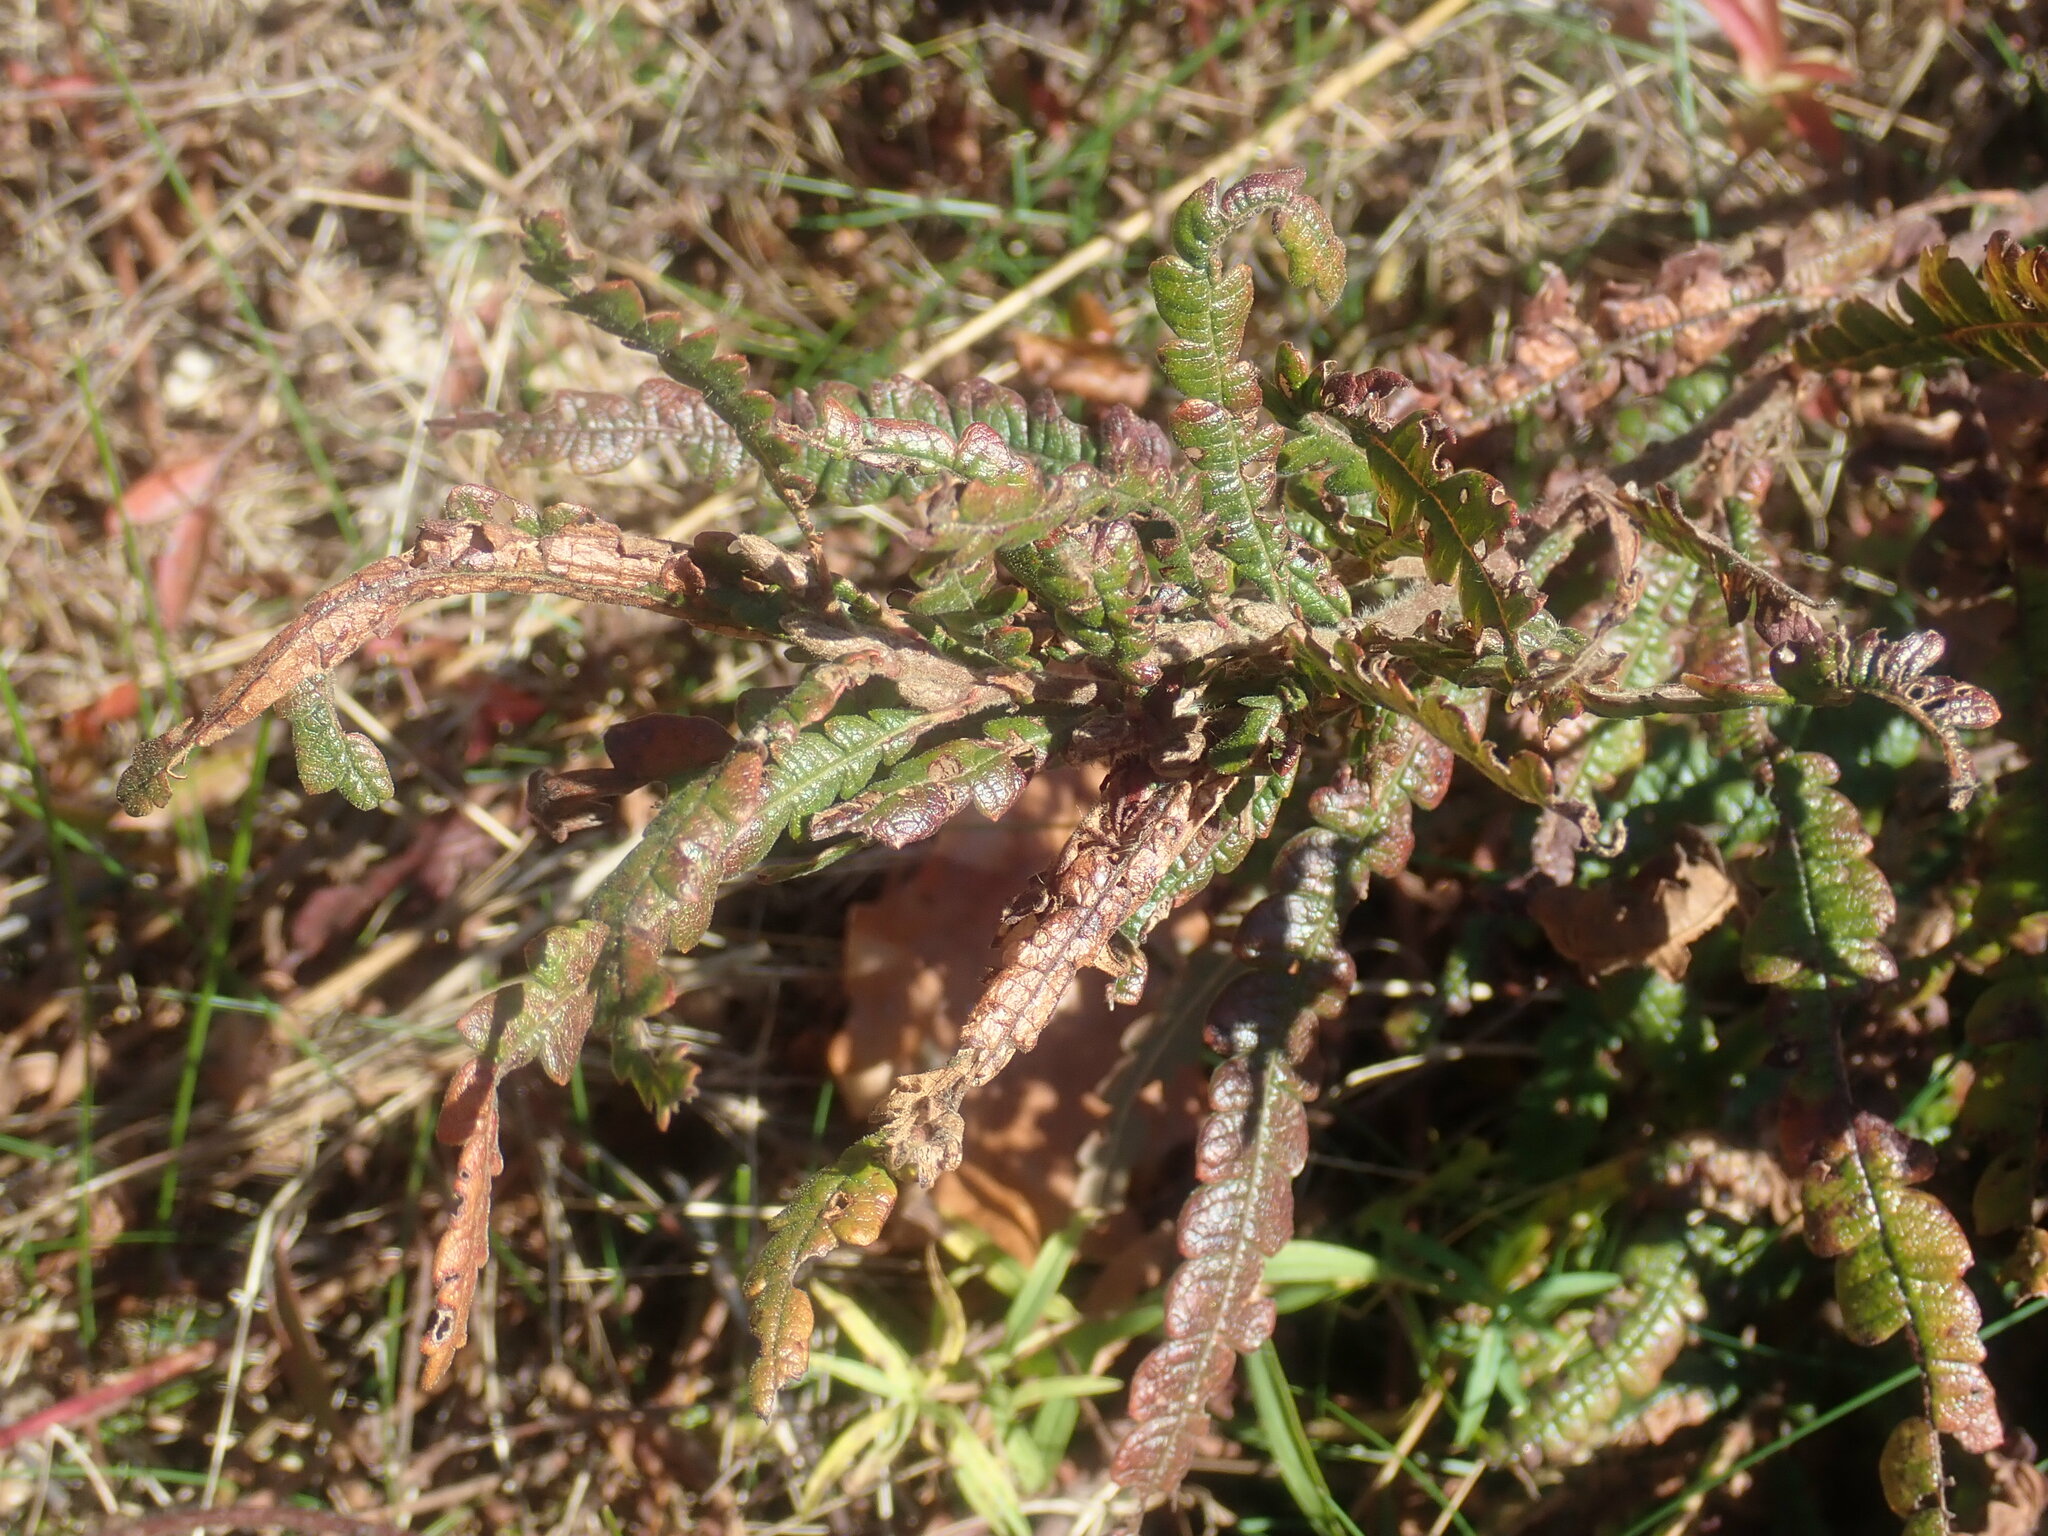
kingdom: Plantae
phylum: Tracheophyta
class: Magnoliopsida
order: Fagales
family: Myricaceae
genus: Comptonia
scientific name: Comptonia peregrina
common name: Sweet-fern
